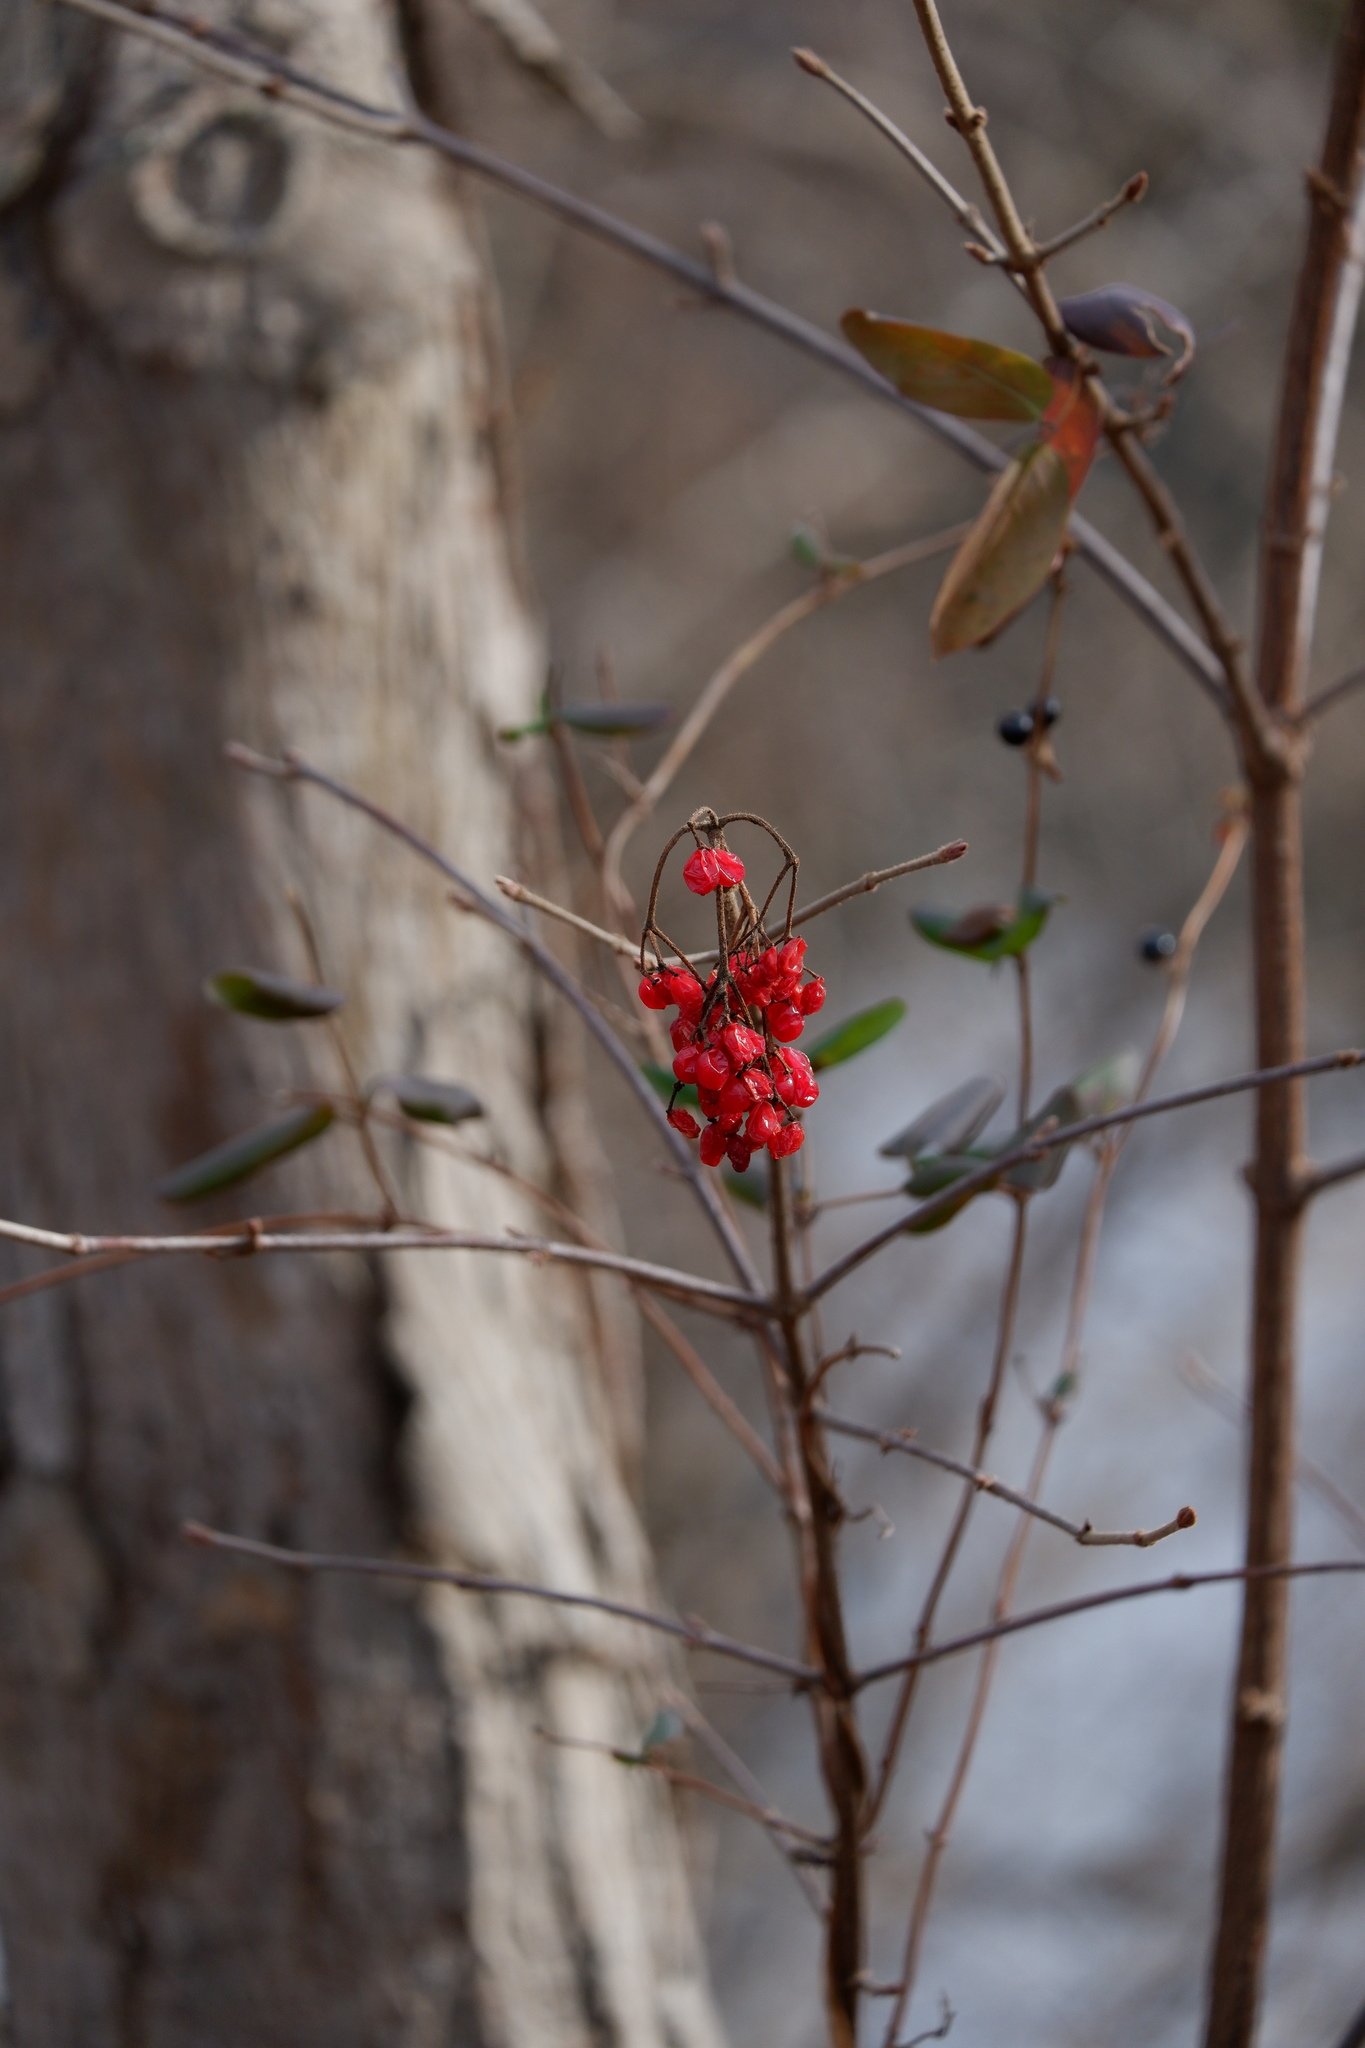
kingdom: Plantae
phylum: Tracheophyta
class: Magnoliopsida
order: Dipsacales
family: Viburnaceae
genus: Viburnum
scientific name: Viburnum dilatatum
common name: Linden arrowwood
